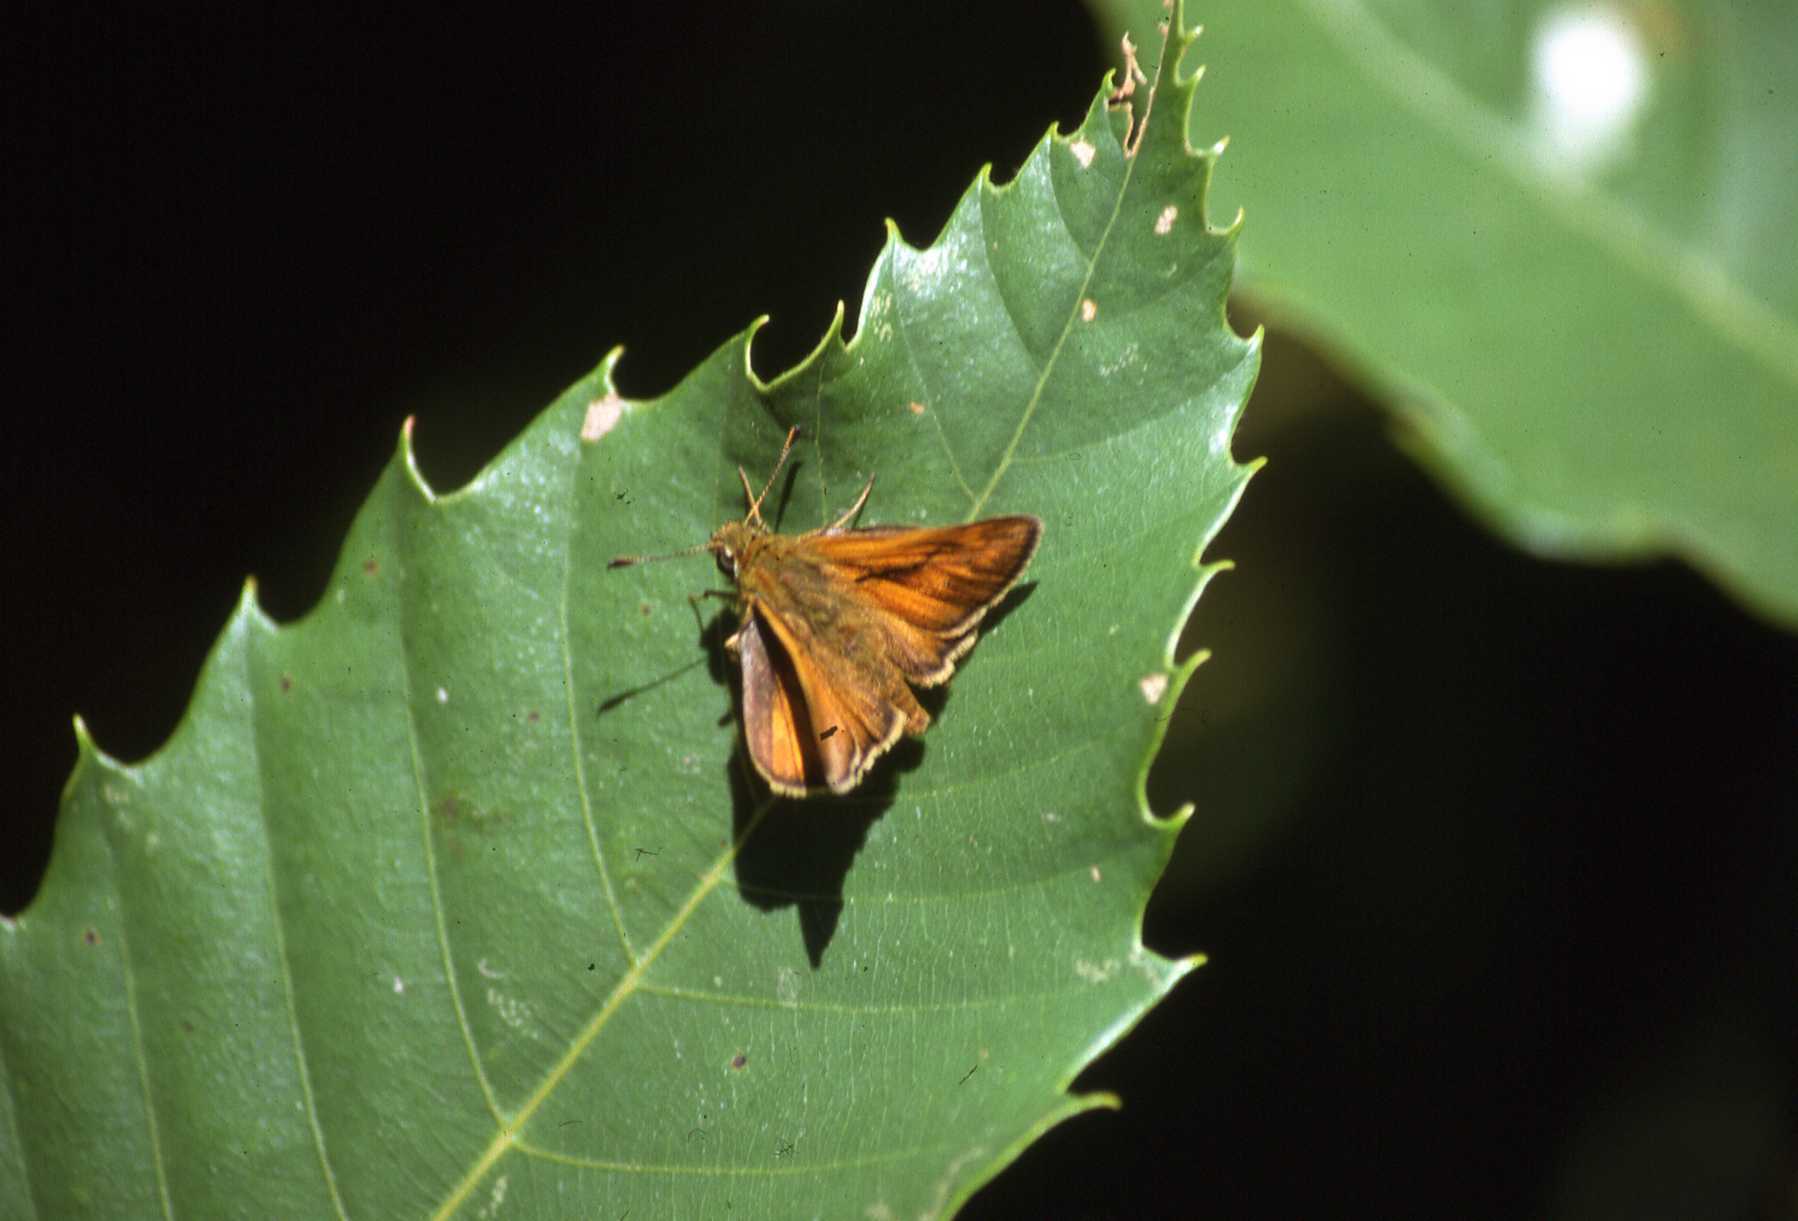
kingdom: Animalia
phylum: Arthropoda
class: Insecta
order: Lepidoptera
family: Hesperiidae
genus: Ochlodes
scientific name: Ochlodes venata
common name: Large skipper
